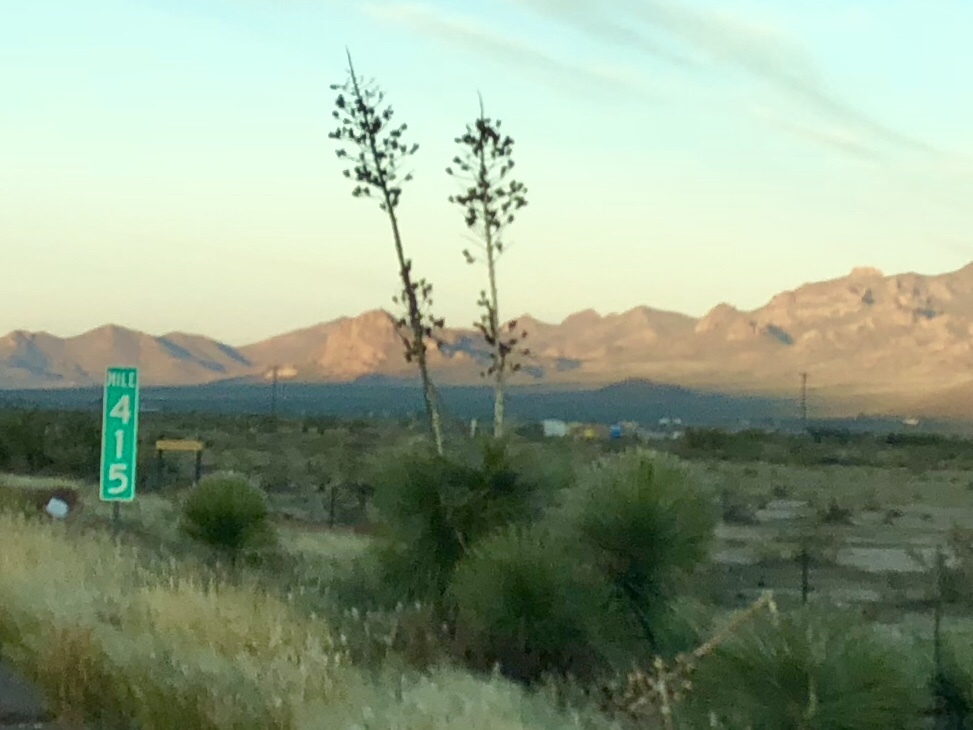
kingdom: Plantae
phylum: Tracheophyta
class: Liliopsida
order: Asparagales
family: Asparagaceae
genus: Yucca
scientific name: Yucca elata
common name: Palmella
